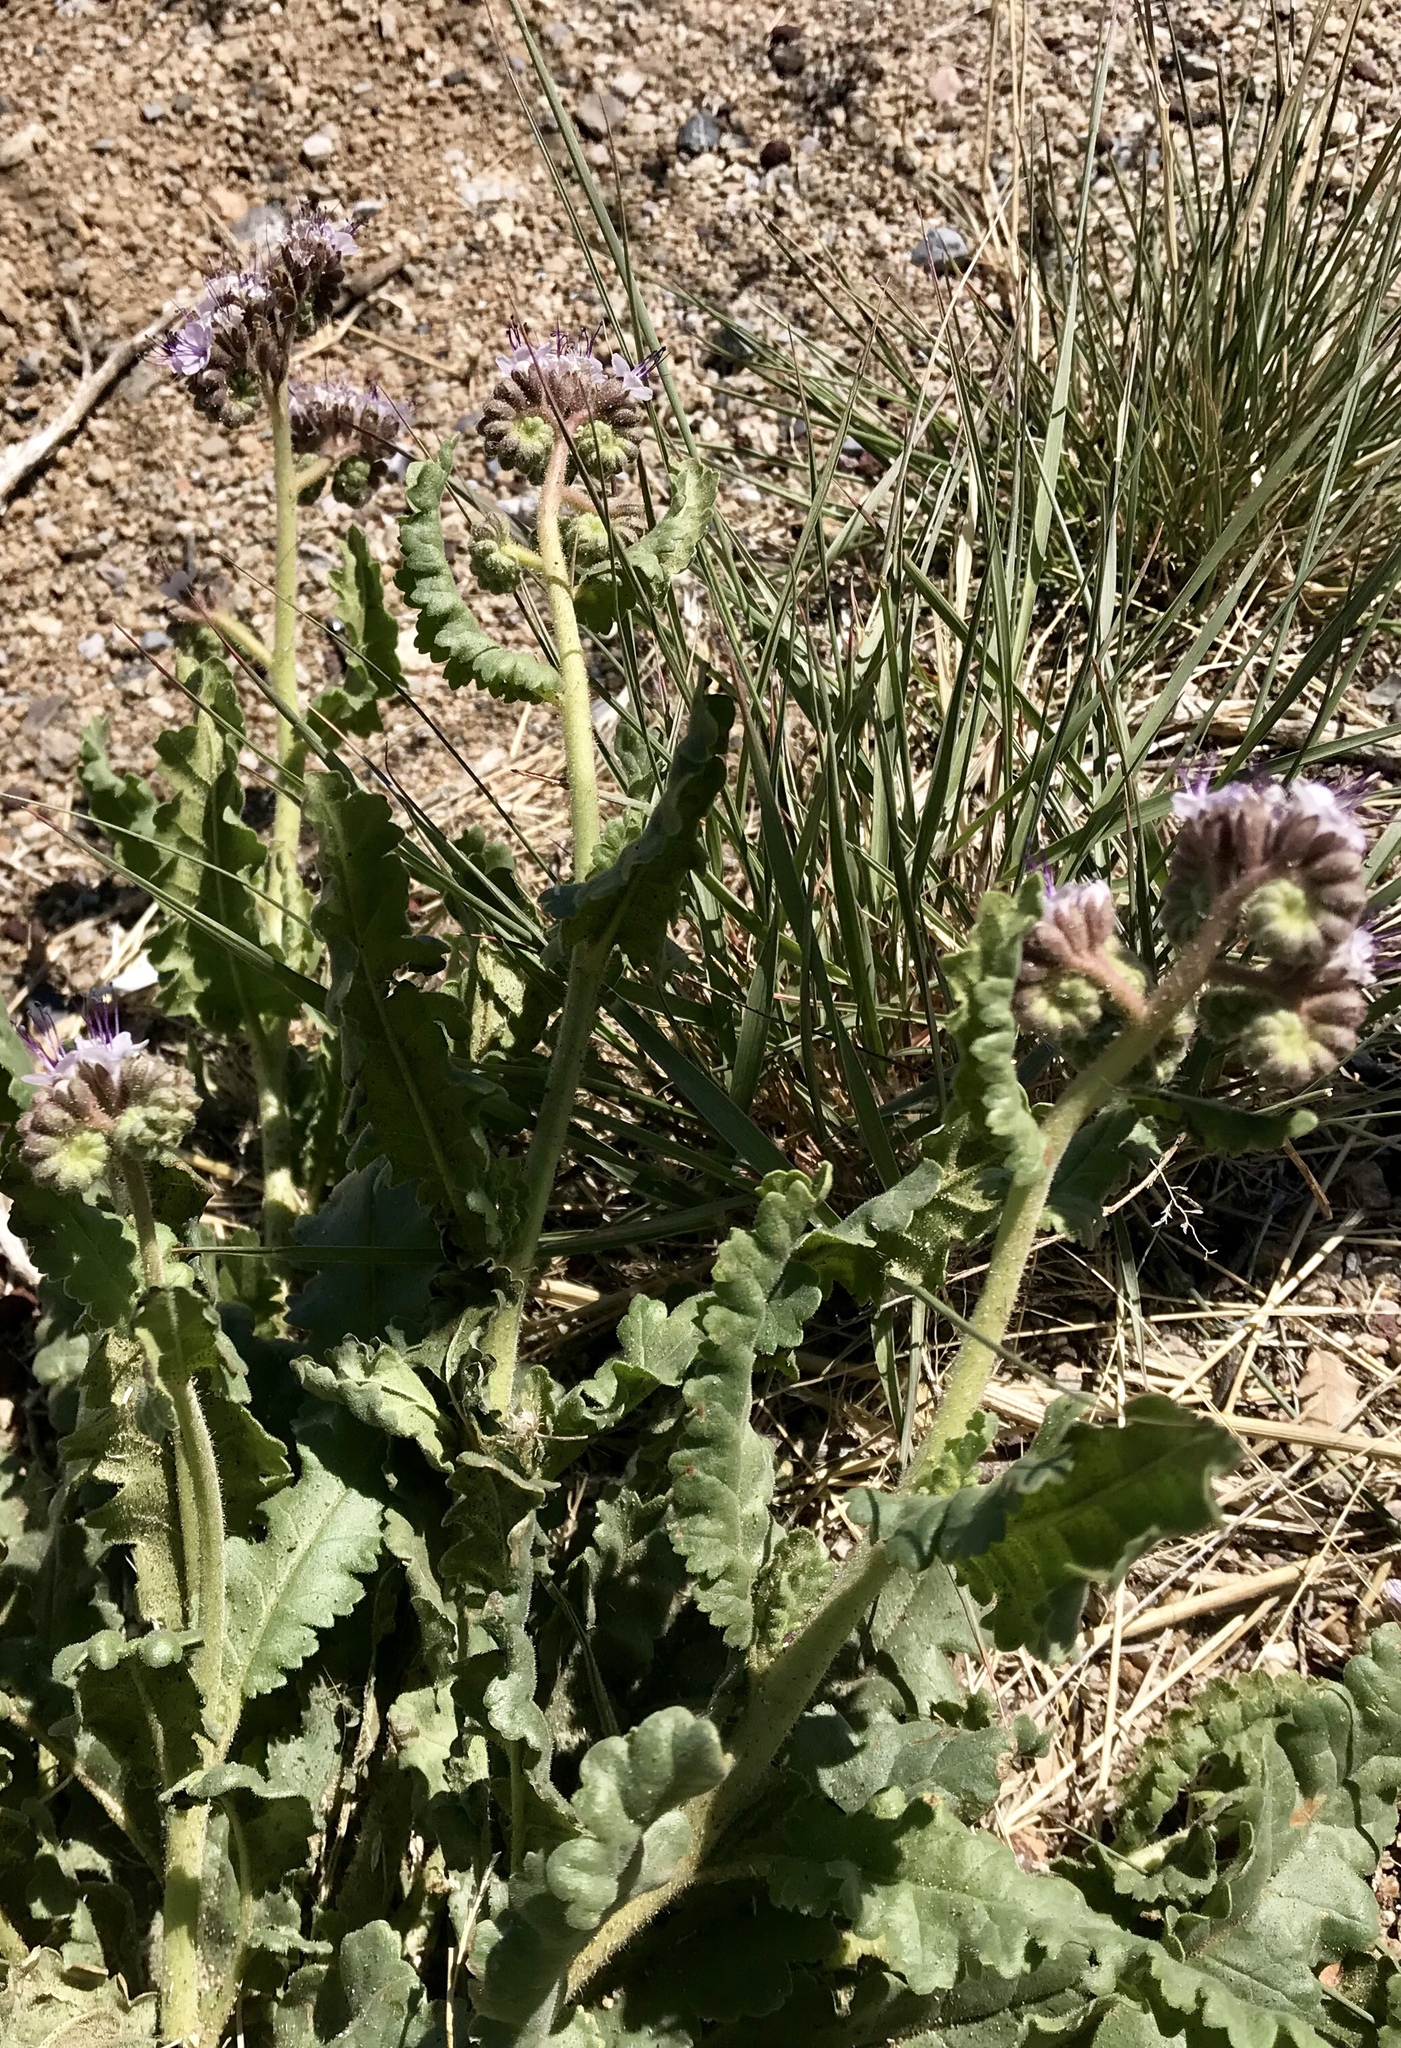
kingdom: Plantae
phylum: Tracheophyta
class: Magnoliopsida
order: Boraginales
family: Hydrophyllaceae
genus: Phacelia
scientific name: Phacelia integrifolia
